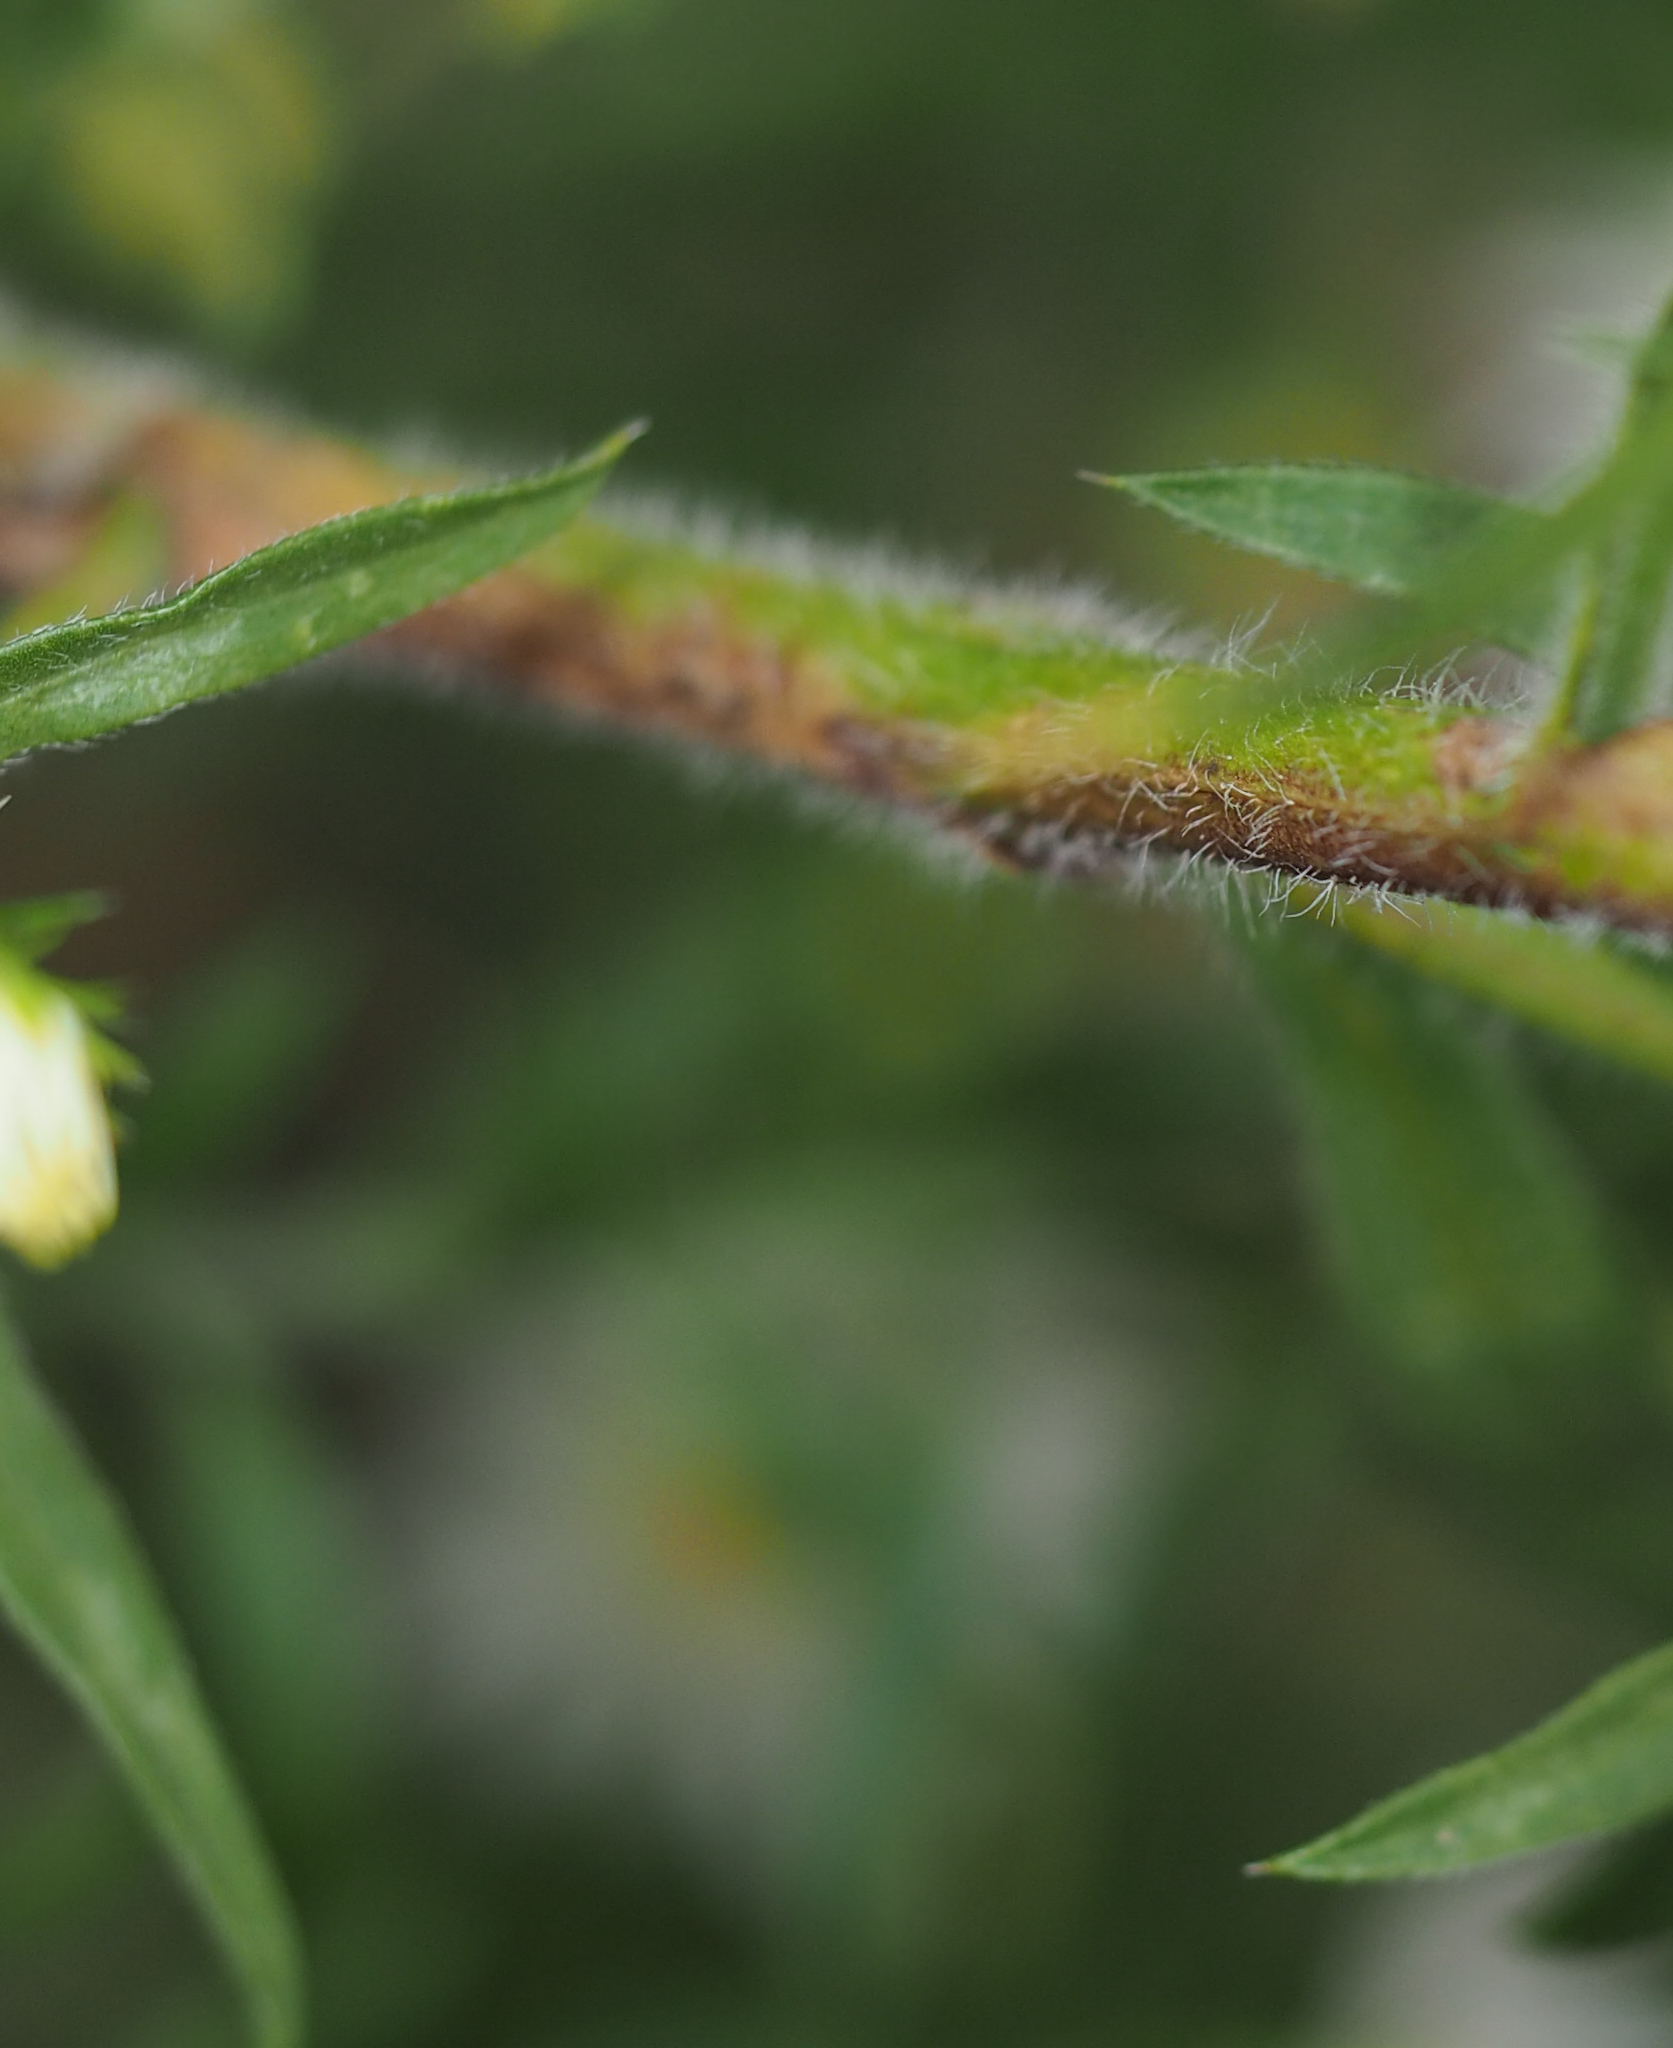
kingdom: Plantae
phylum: Tracheophyta
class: Magnoliopsida
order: Asterales
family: Asteraceae
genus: Symphyotrichum
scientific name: Symphyotrichum pilosum
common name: Awl aster
